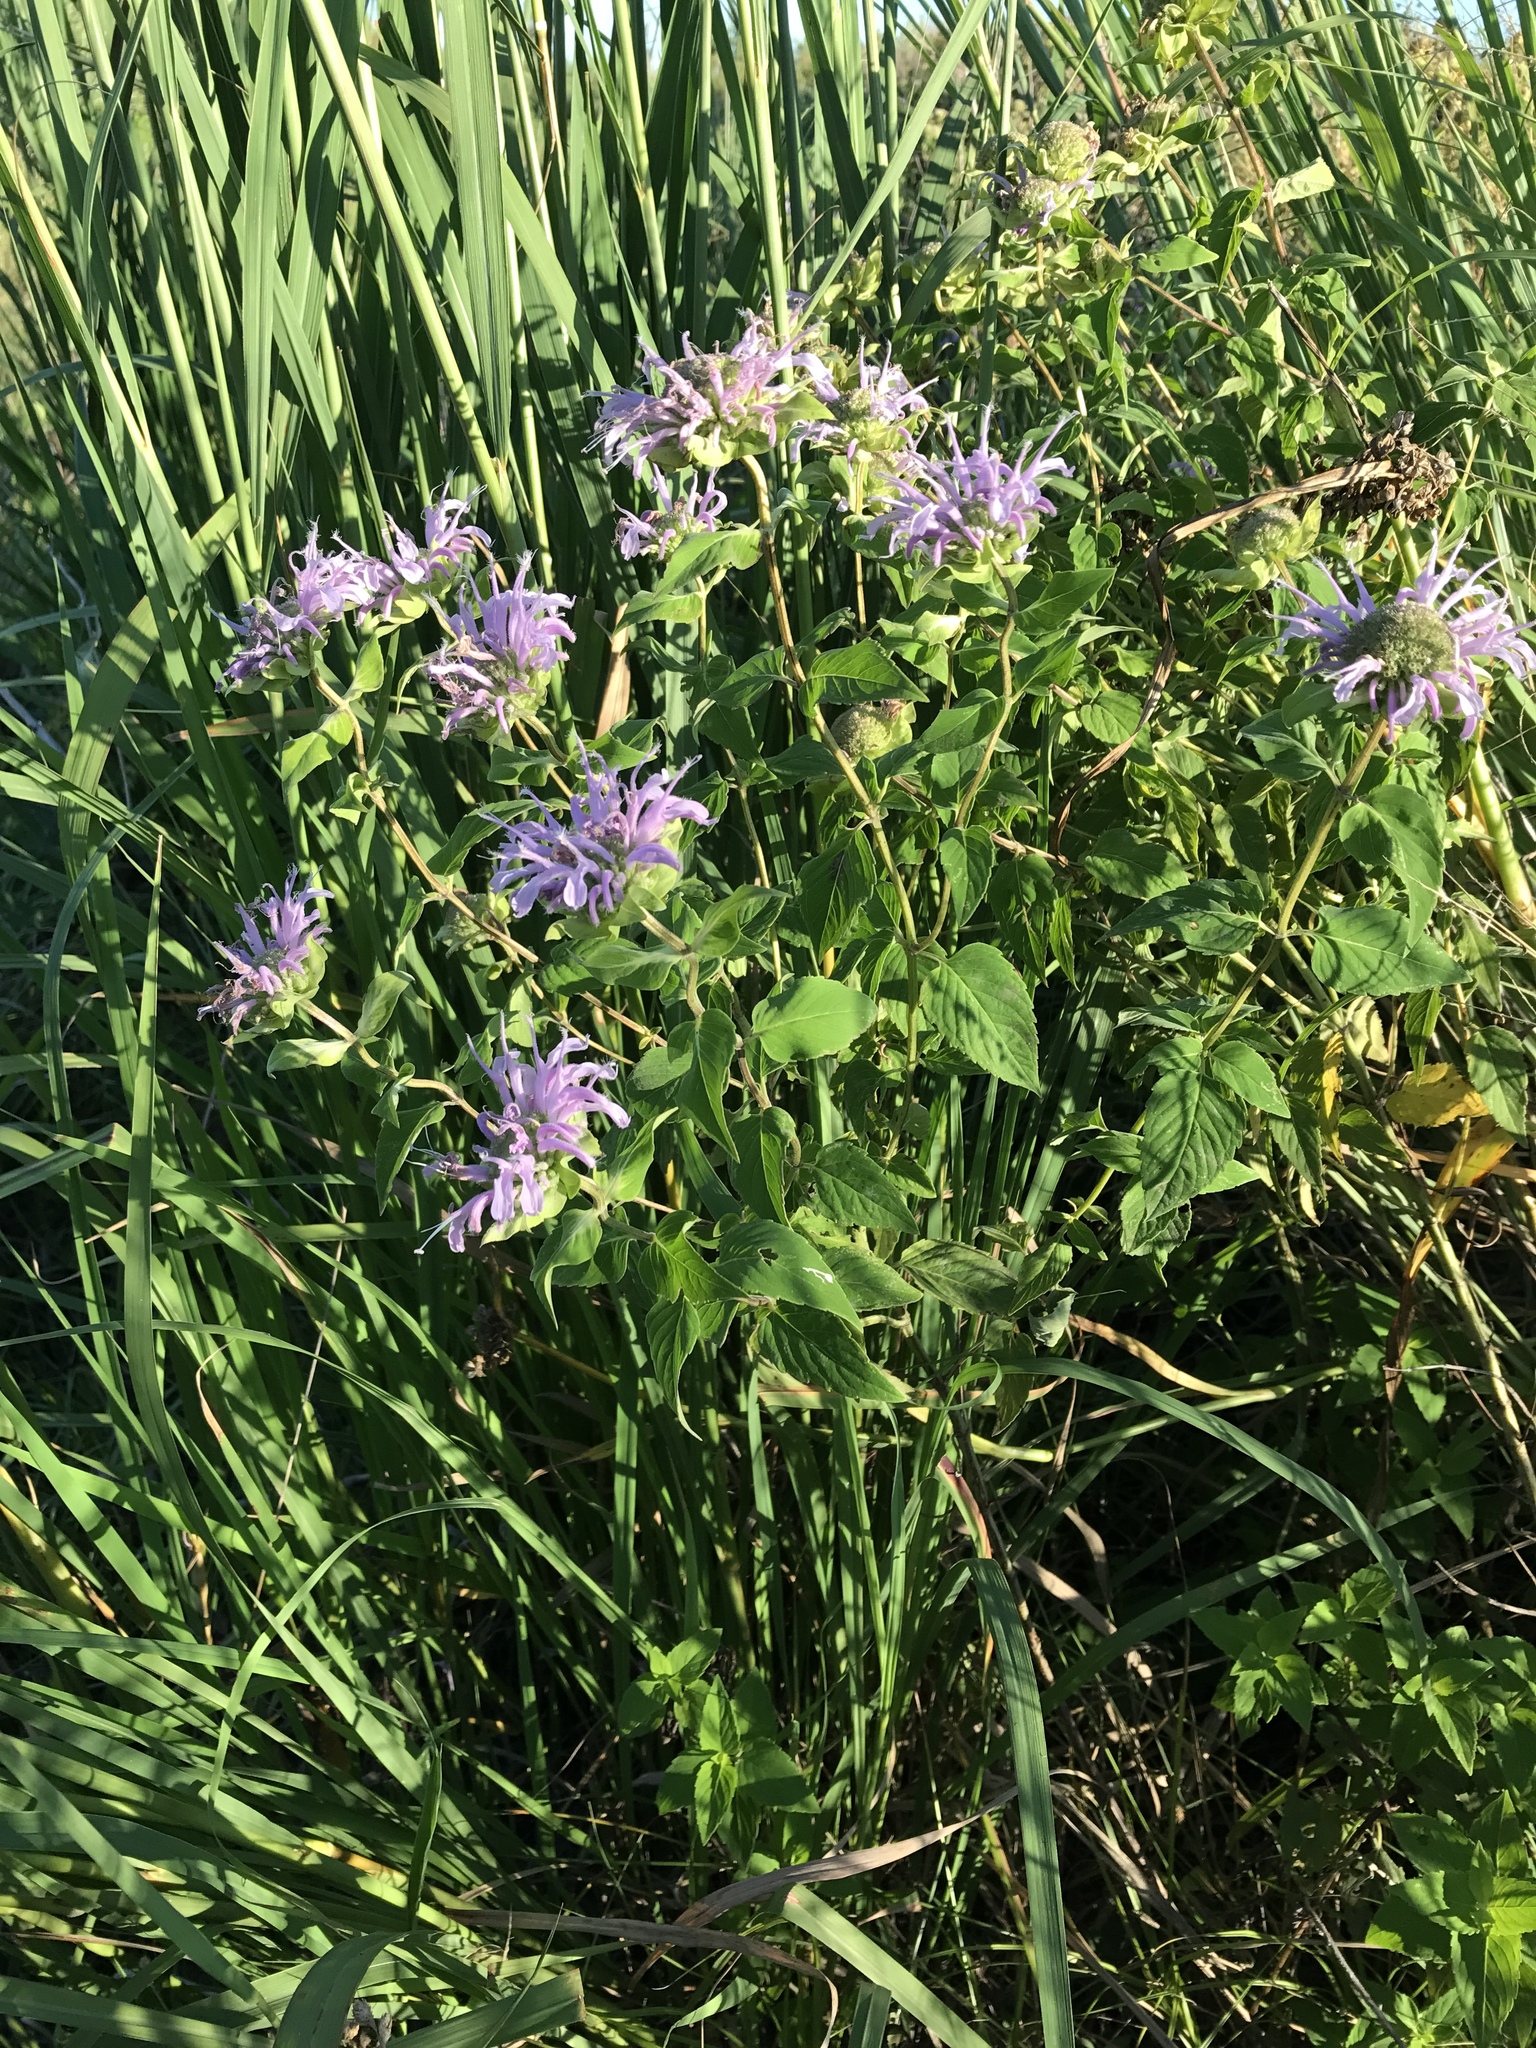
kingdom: Plantae
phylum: Tracheophyta
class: Magnoliopsida
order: Lamiales
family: Lamiaceae
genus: Monarda
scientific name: Monarda fistulosa
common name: Purple beebalm
